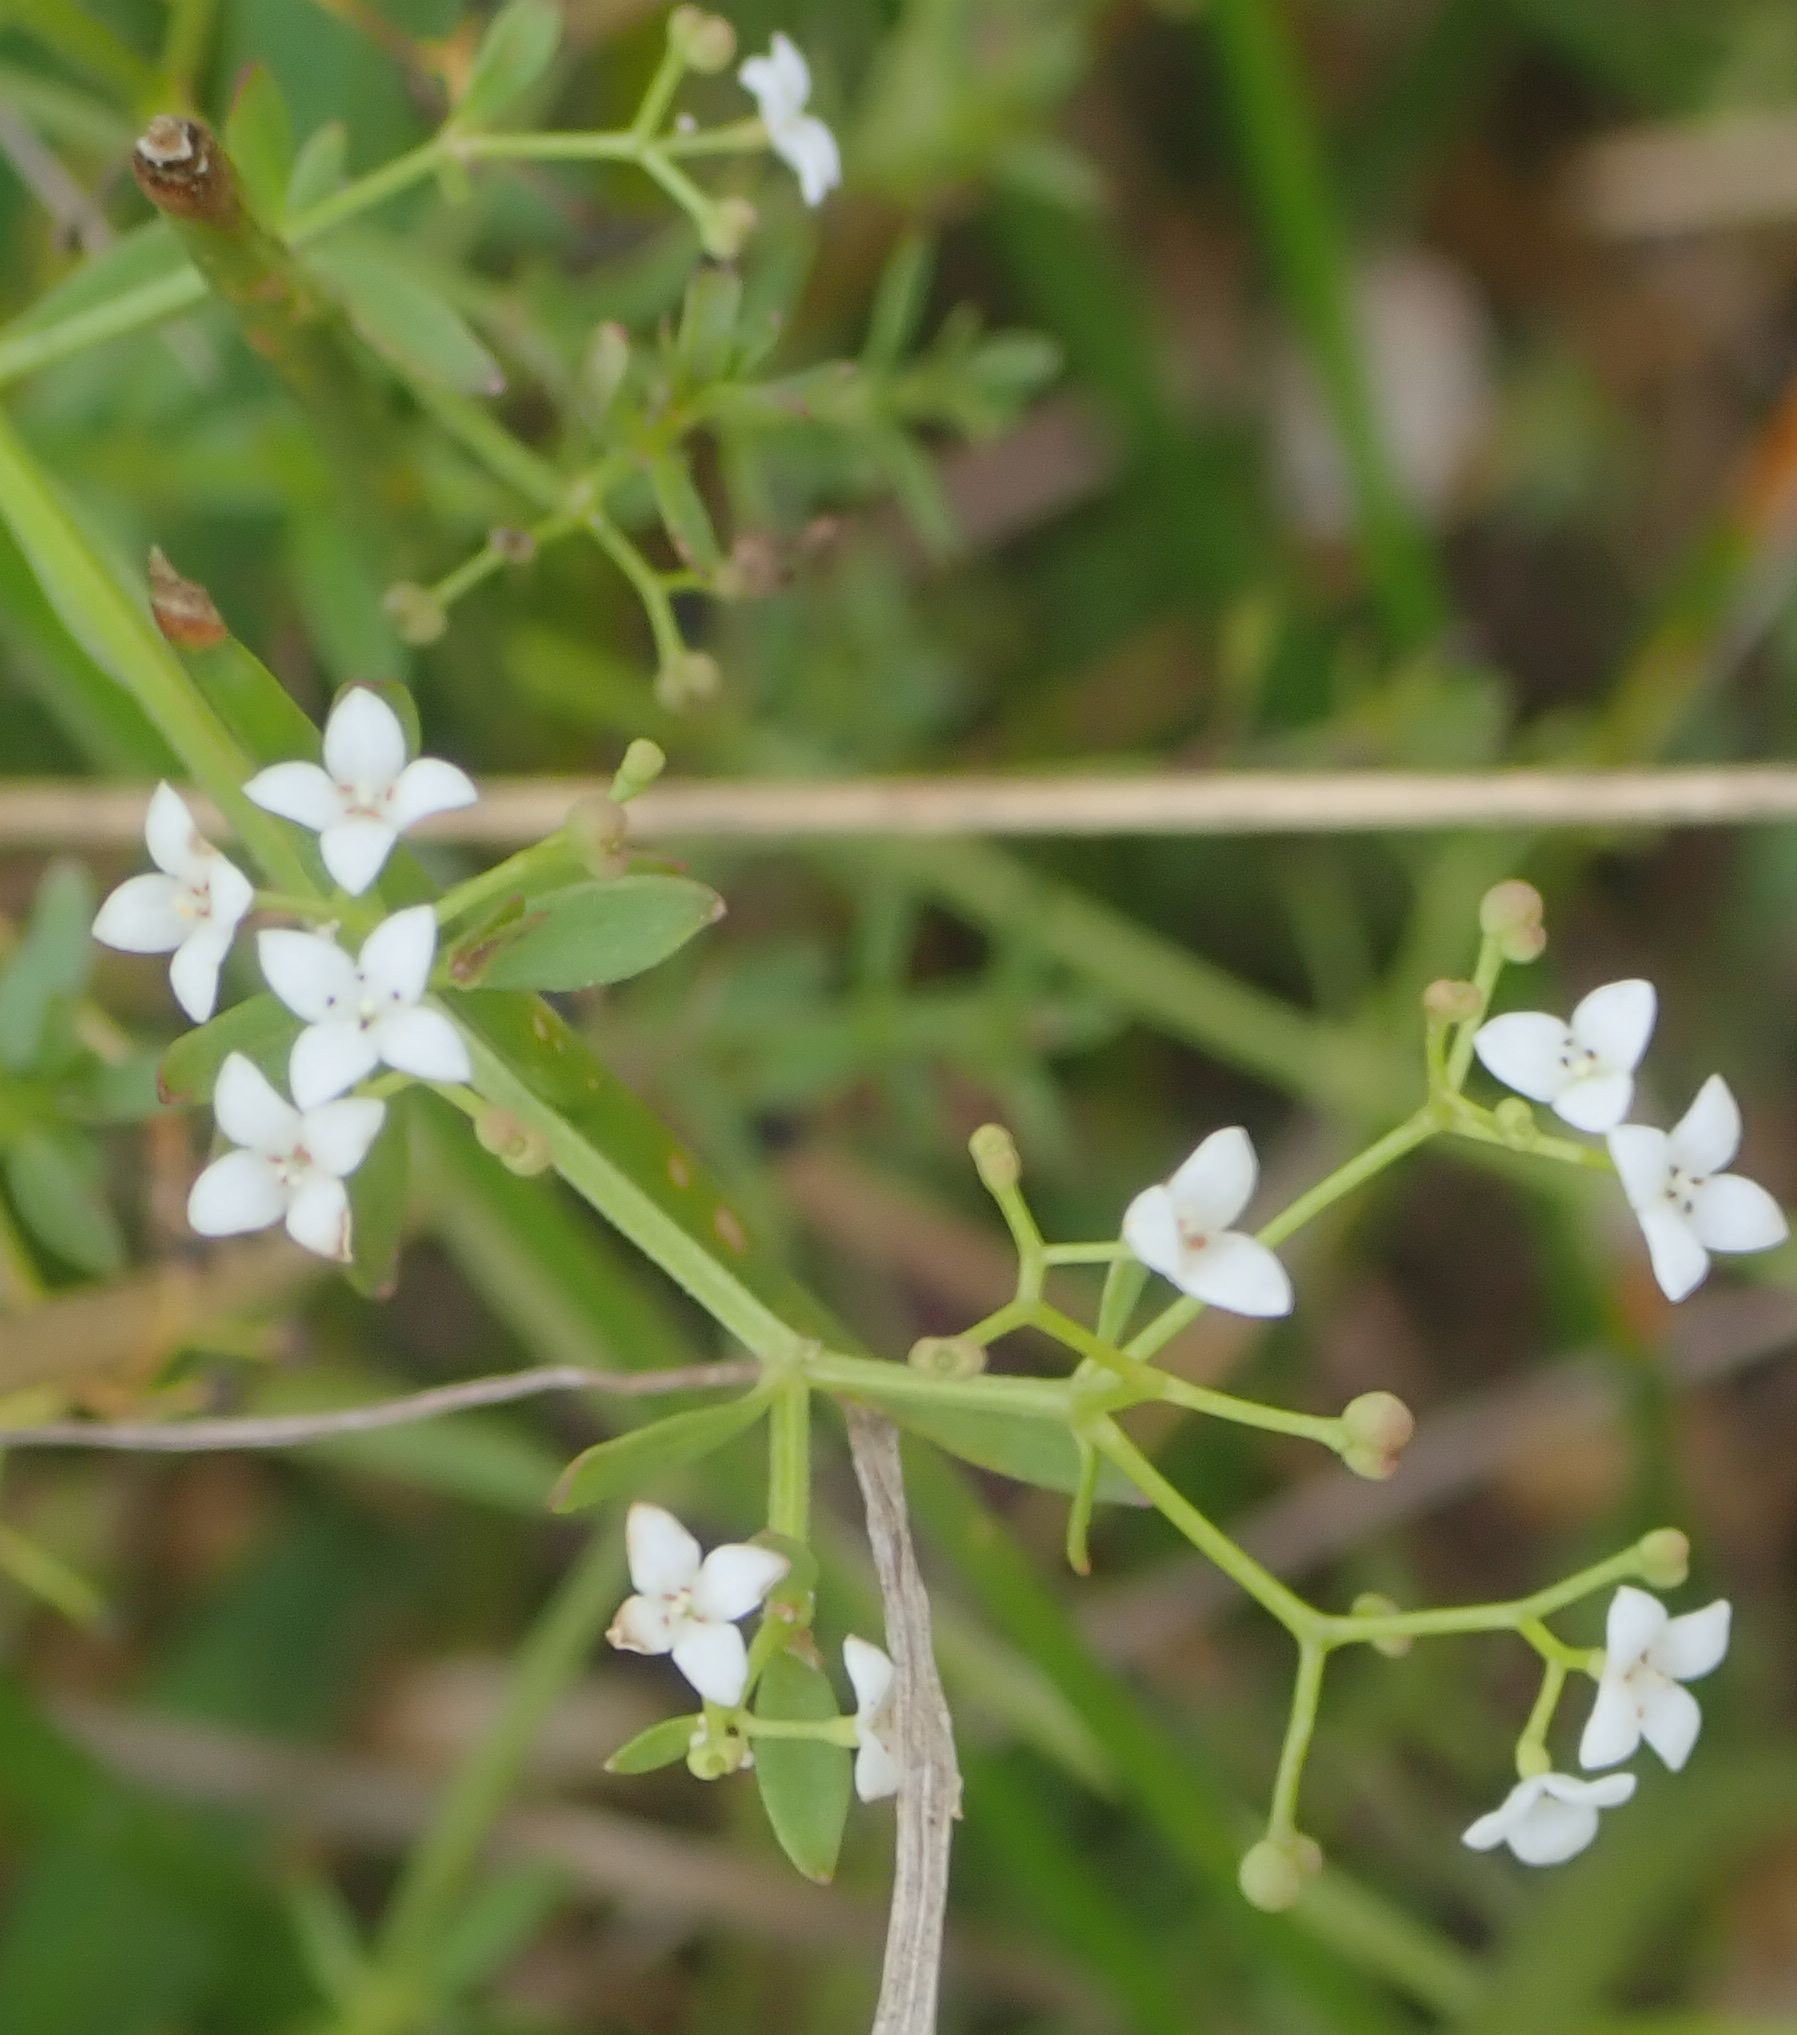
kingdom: Plantae
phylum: Tracheophyta
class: Magnoliopsida
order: Gentianales
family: Rubiaceae
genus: Galium
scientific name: Galium palustre
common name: Common marsh-bedstraw
